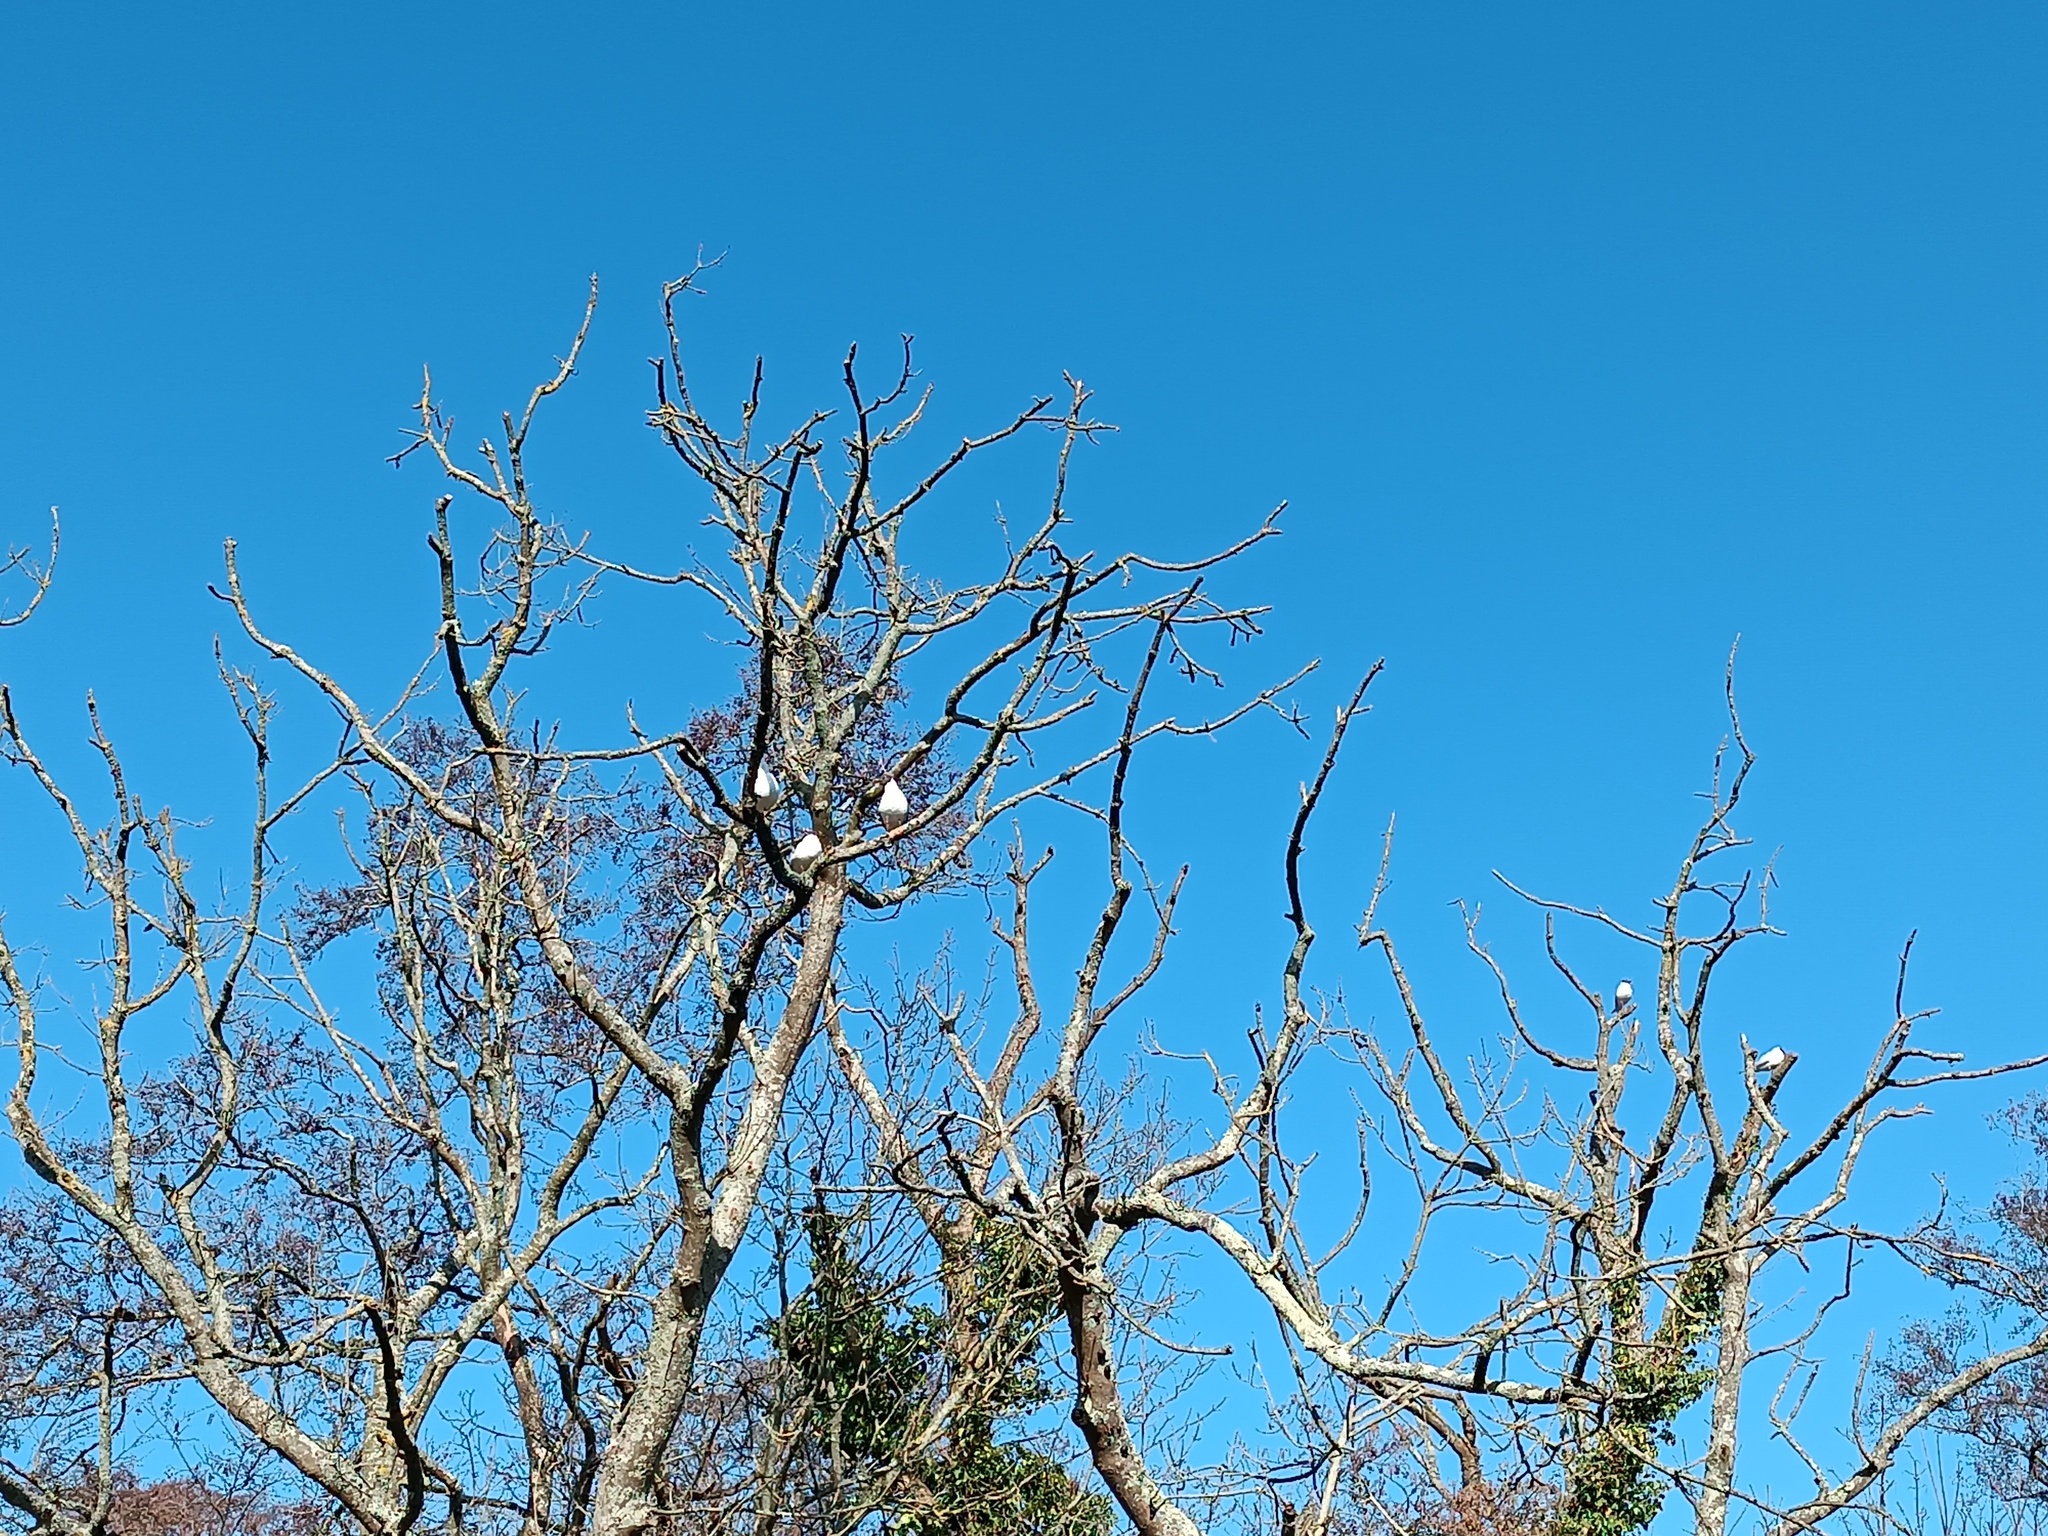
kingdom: Animalia
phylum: Chordata
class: Aves
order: Charadriiformes
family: Laridae
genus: Chroicocephalus
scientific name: Chroicocephalus ridibundus
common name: Black-headed gull
